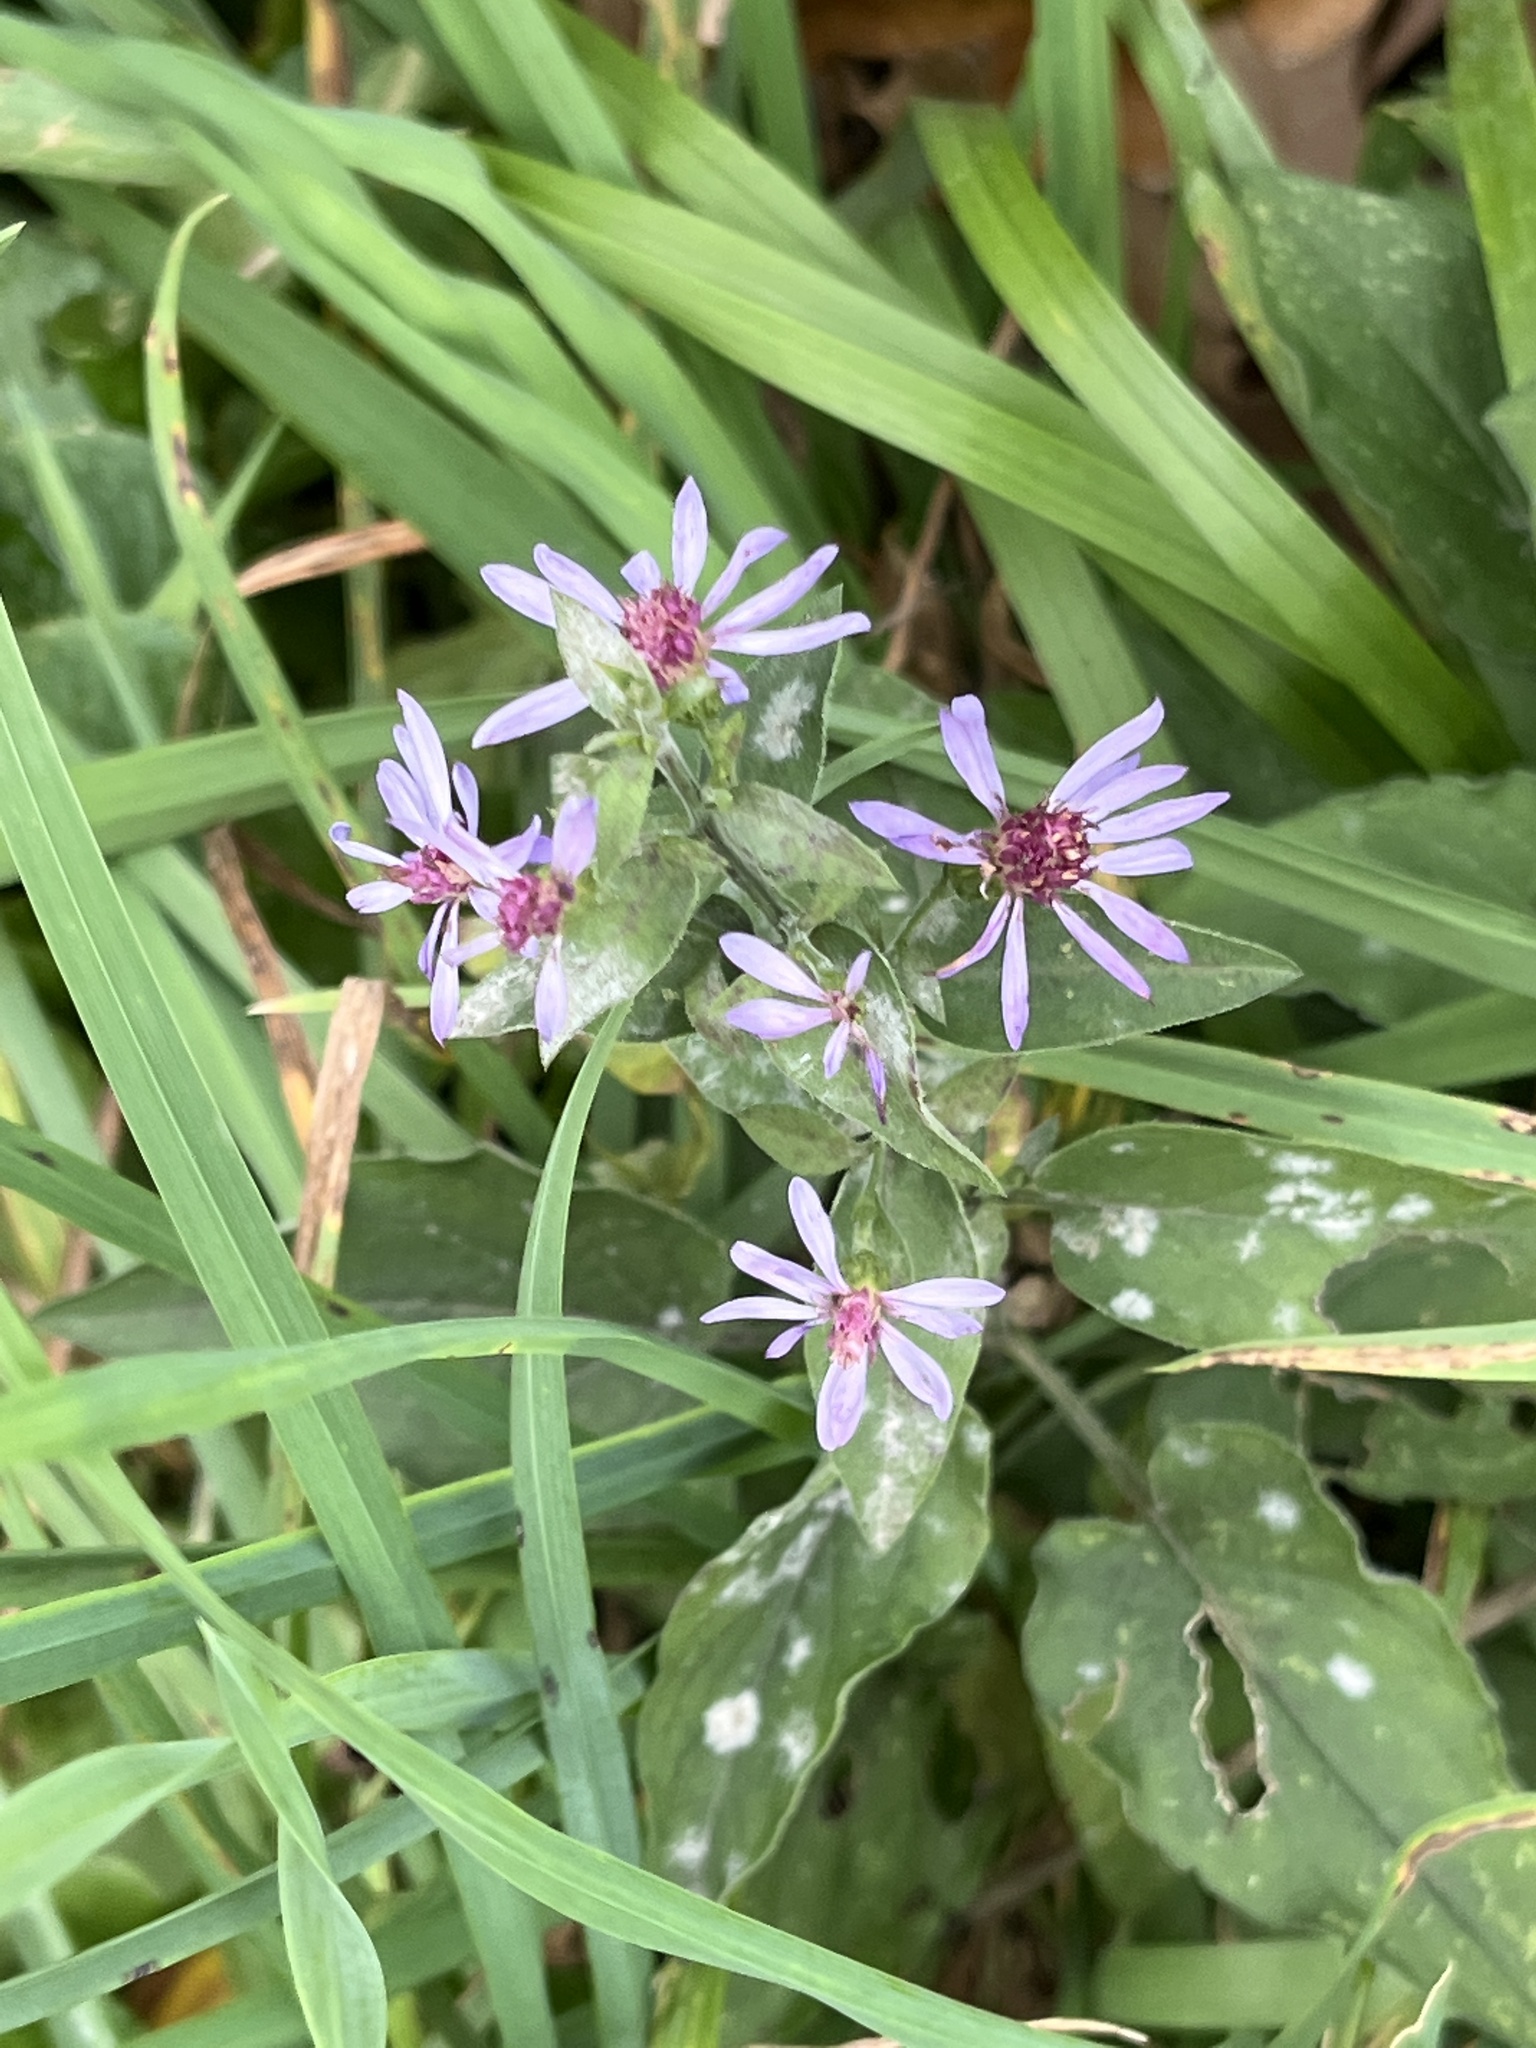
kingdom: Plantae
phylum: Tracheophyta
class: Magnoliopsida
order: Asterales
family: Asteraceae
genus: Symphyotrichum
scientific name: Symphyotrichum shortii
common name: Short's aster
